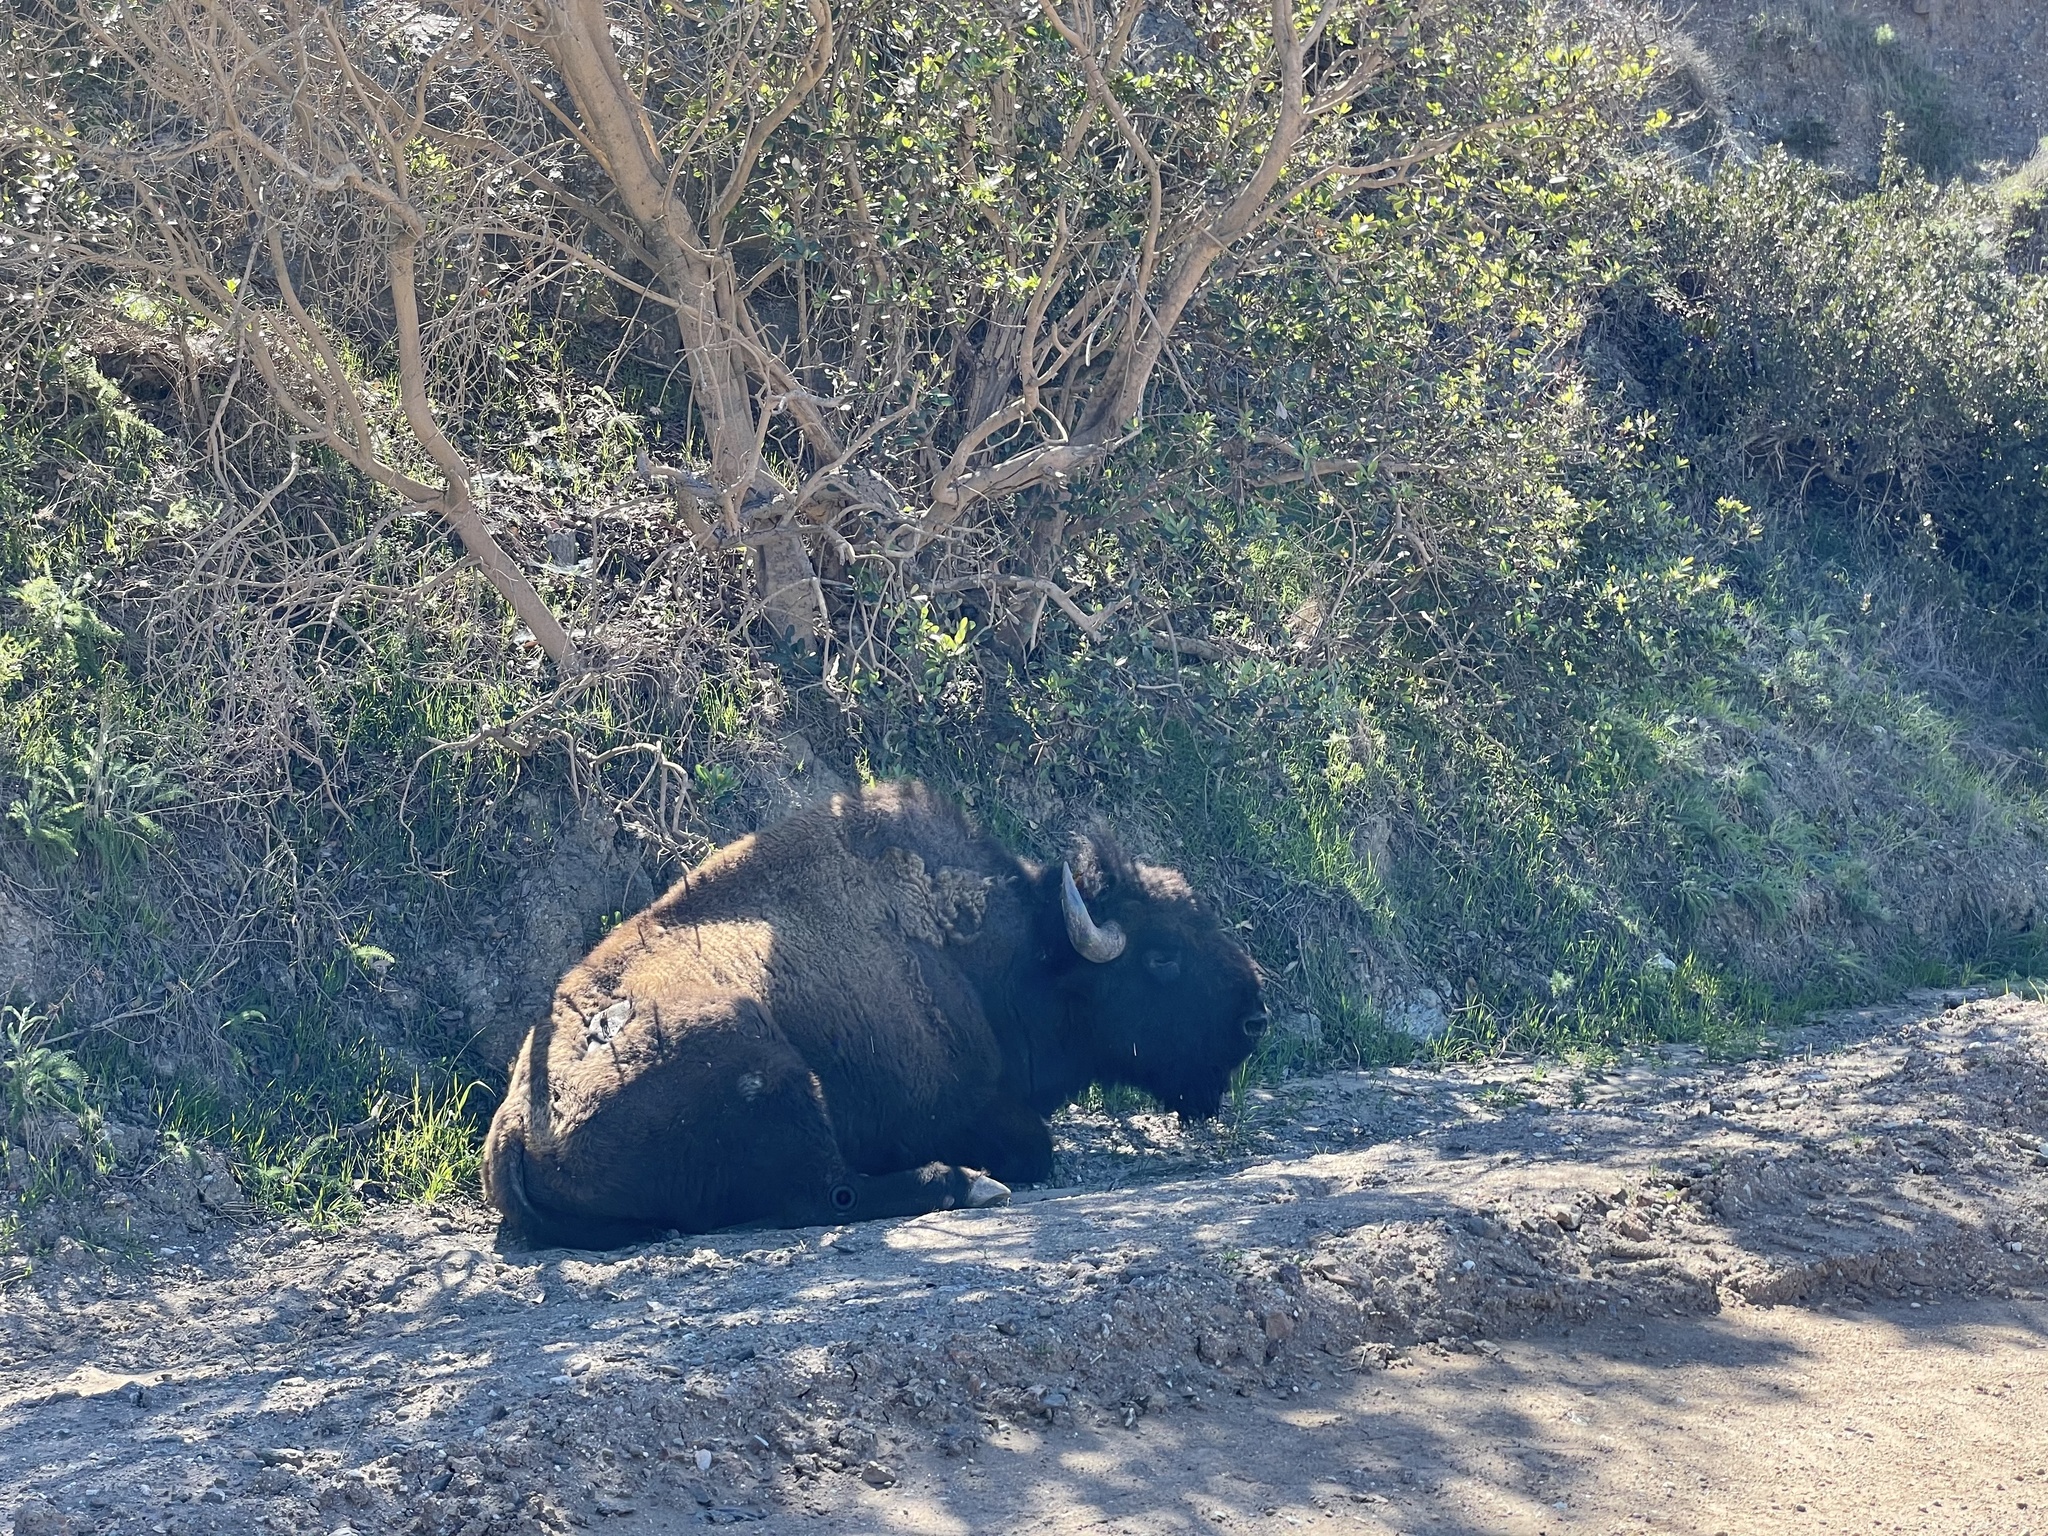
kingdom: Animalia
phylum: Chordata
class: Mammalia
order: Artiodactyla
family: Bovidae
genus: Bison
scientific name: Bison bison
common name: American bison
